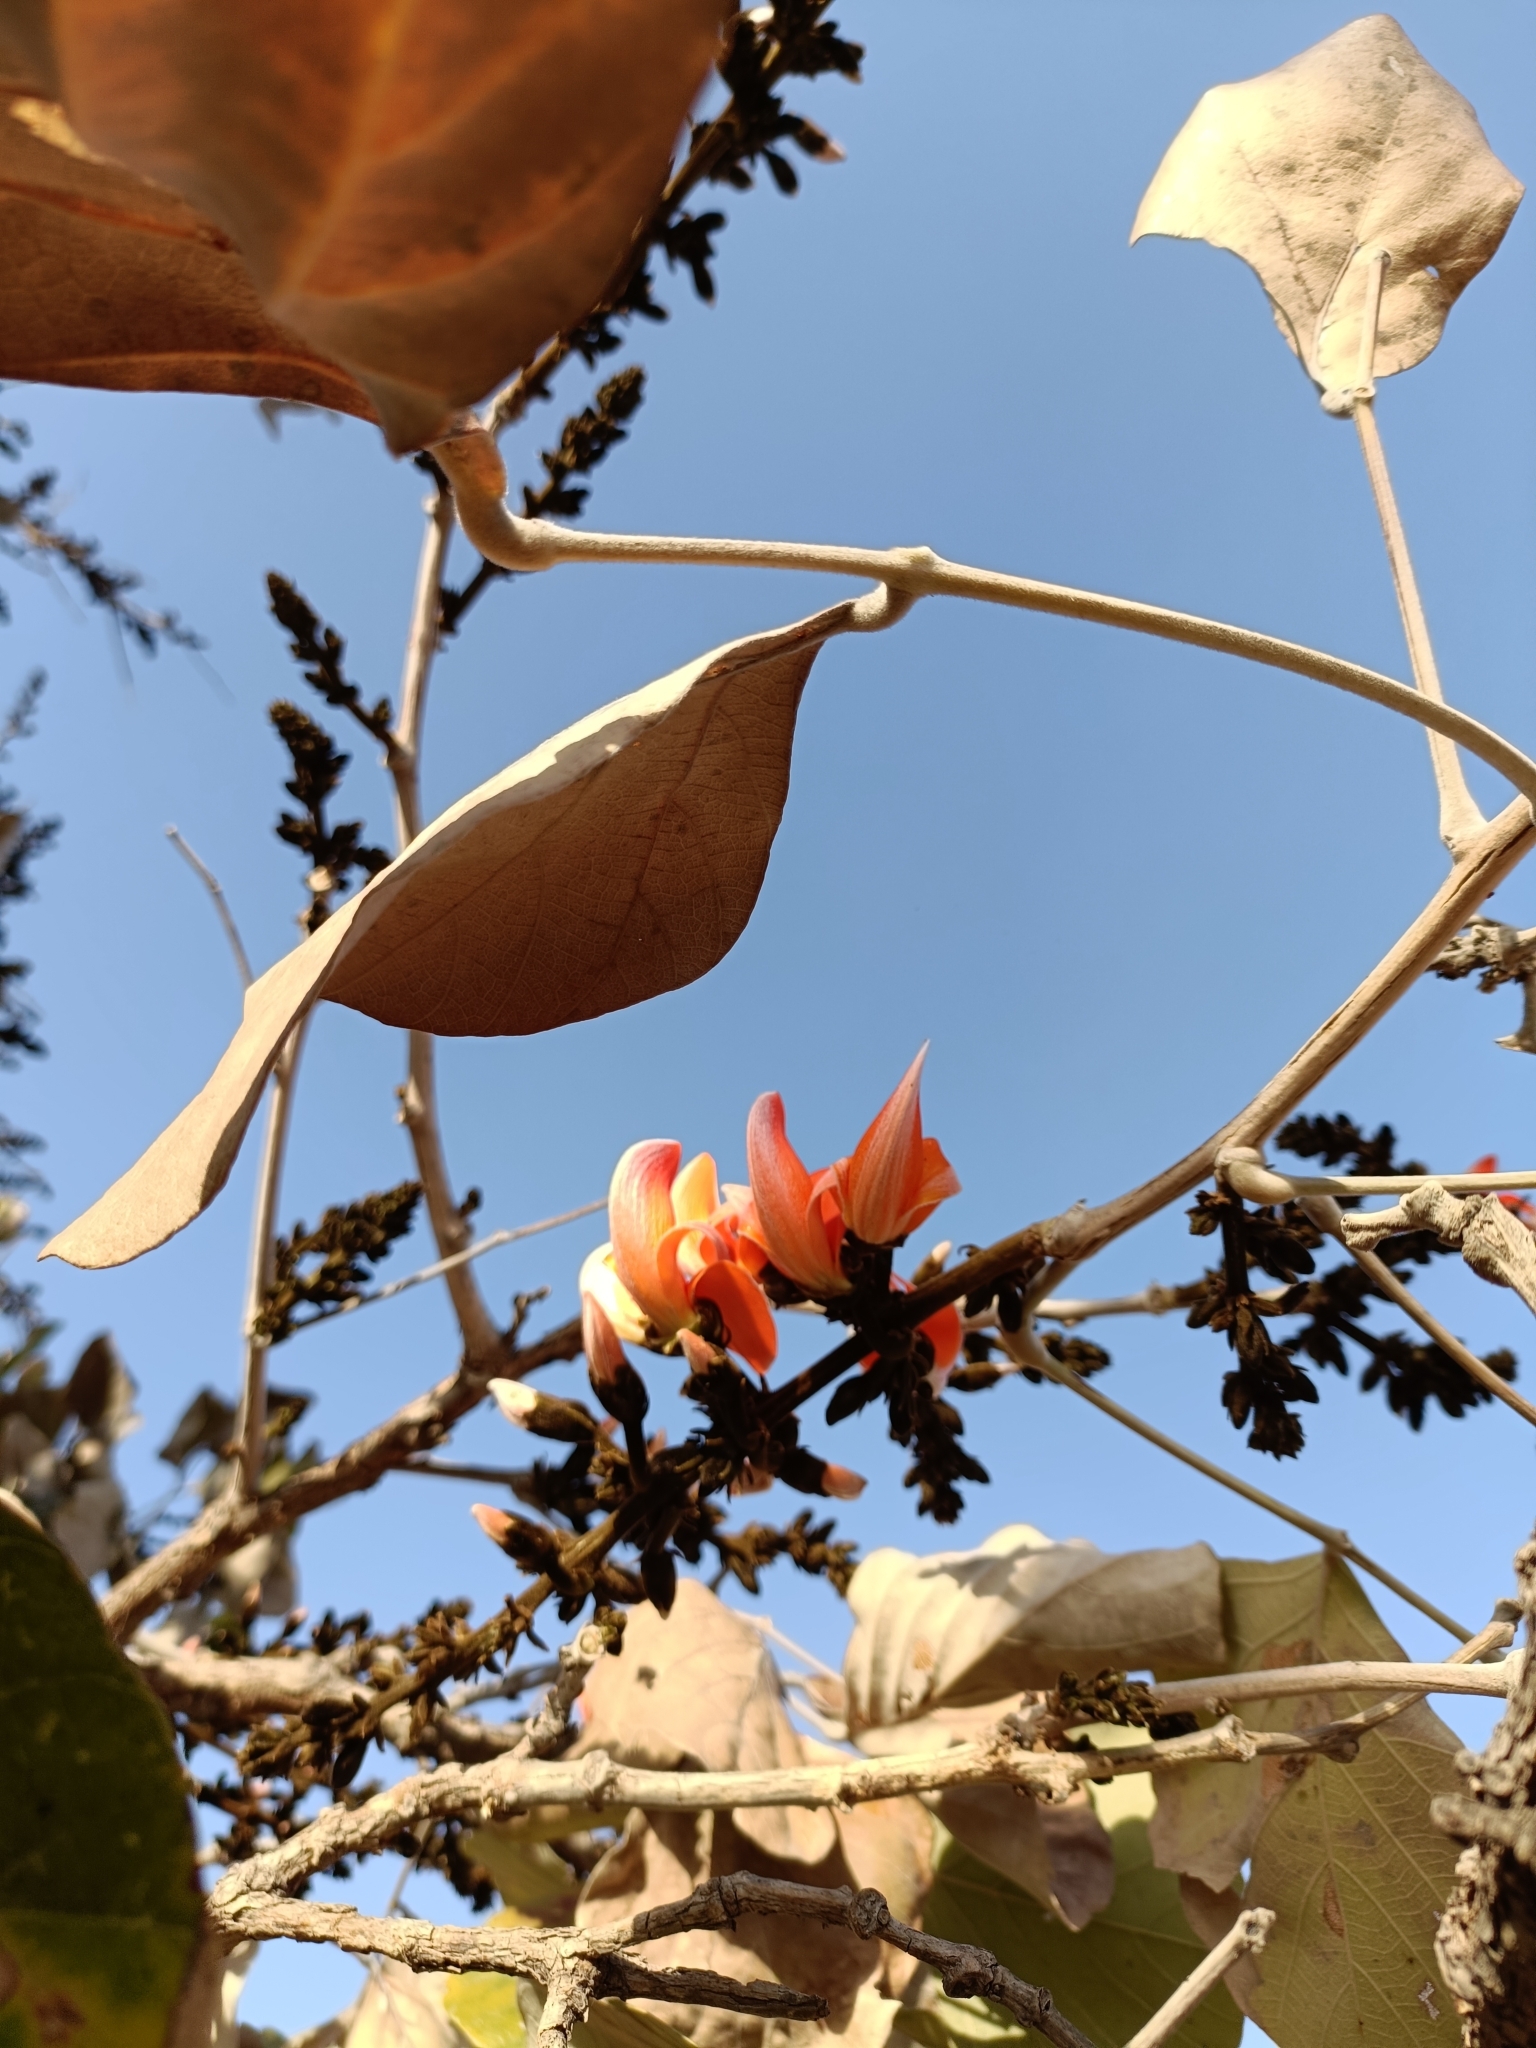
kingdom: Plantae
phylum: Tracheophyta
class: Magnoliopsida
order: Fabales
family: Fabaceae
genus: Butea
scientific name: Butea monosperma
